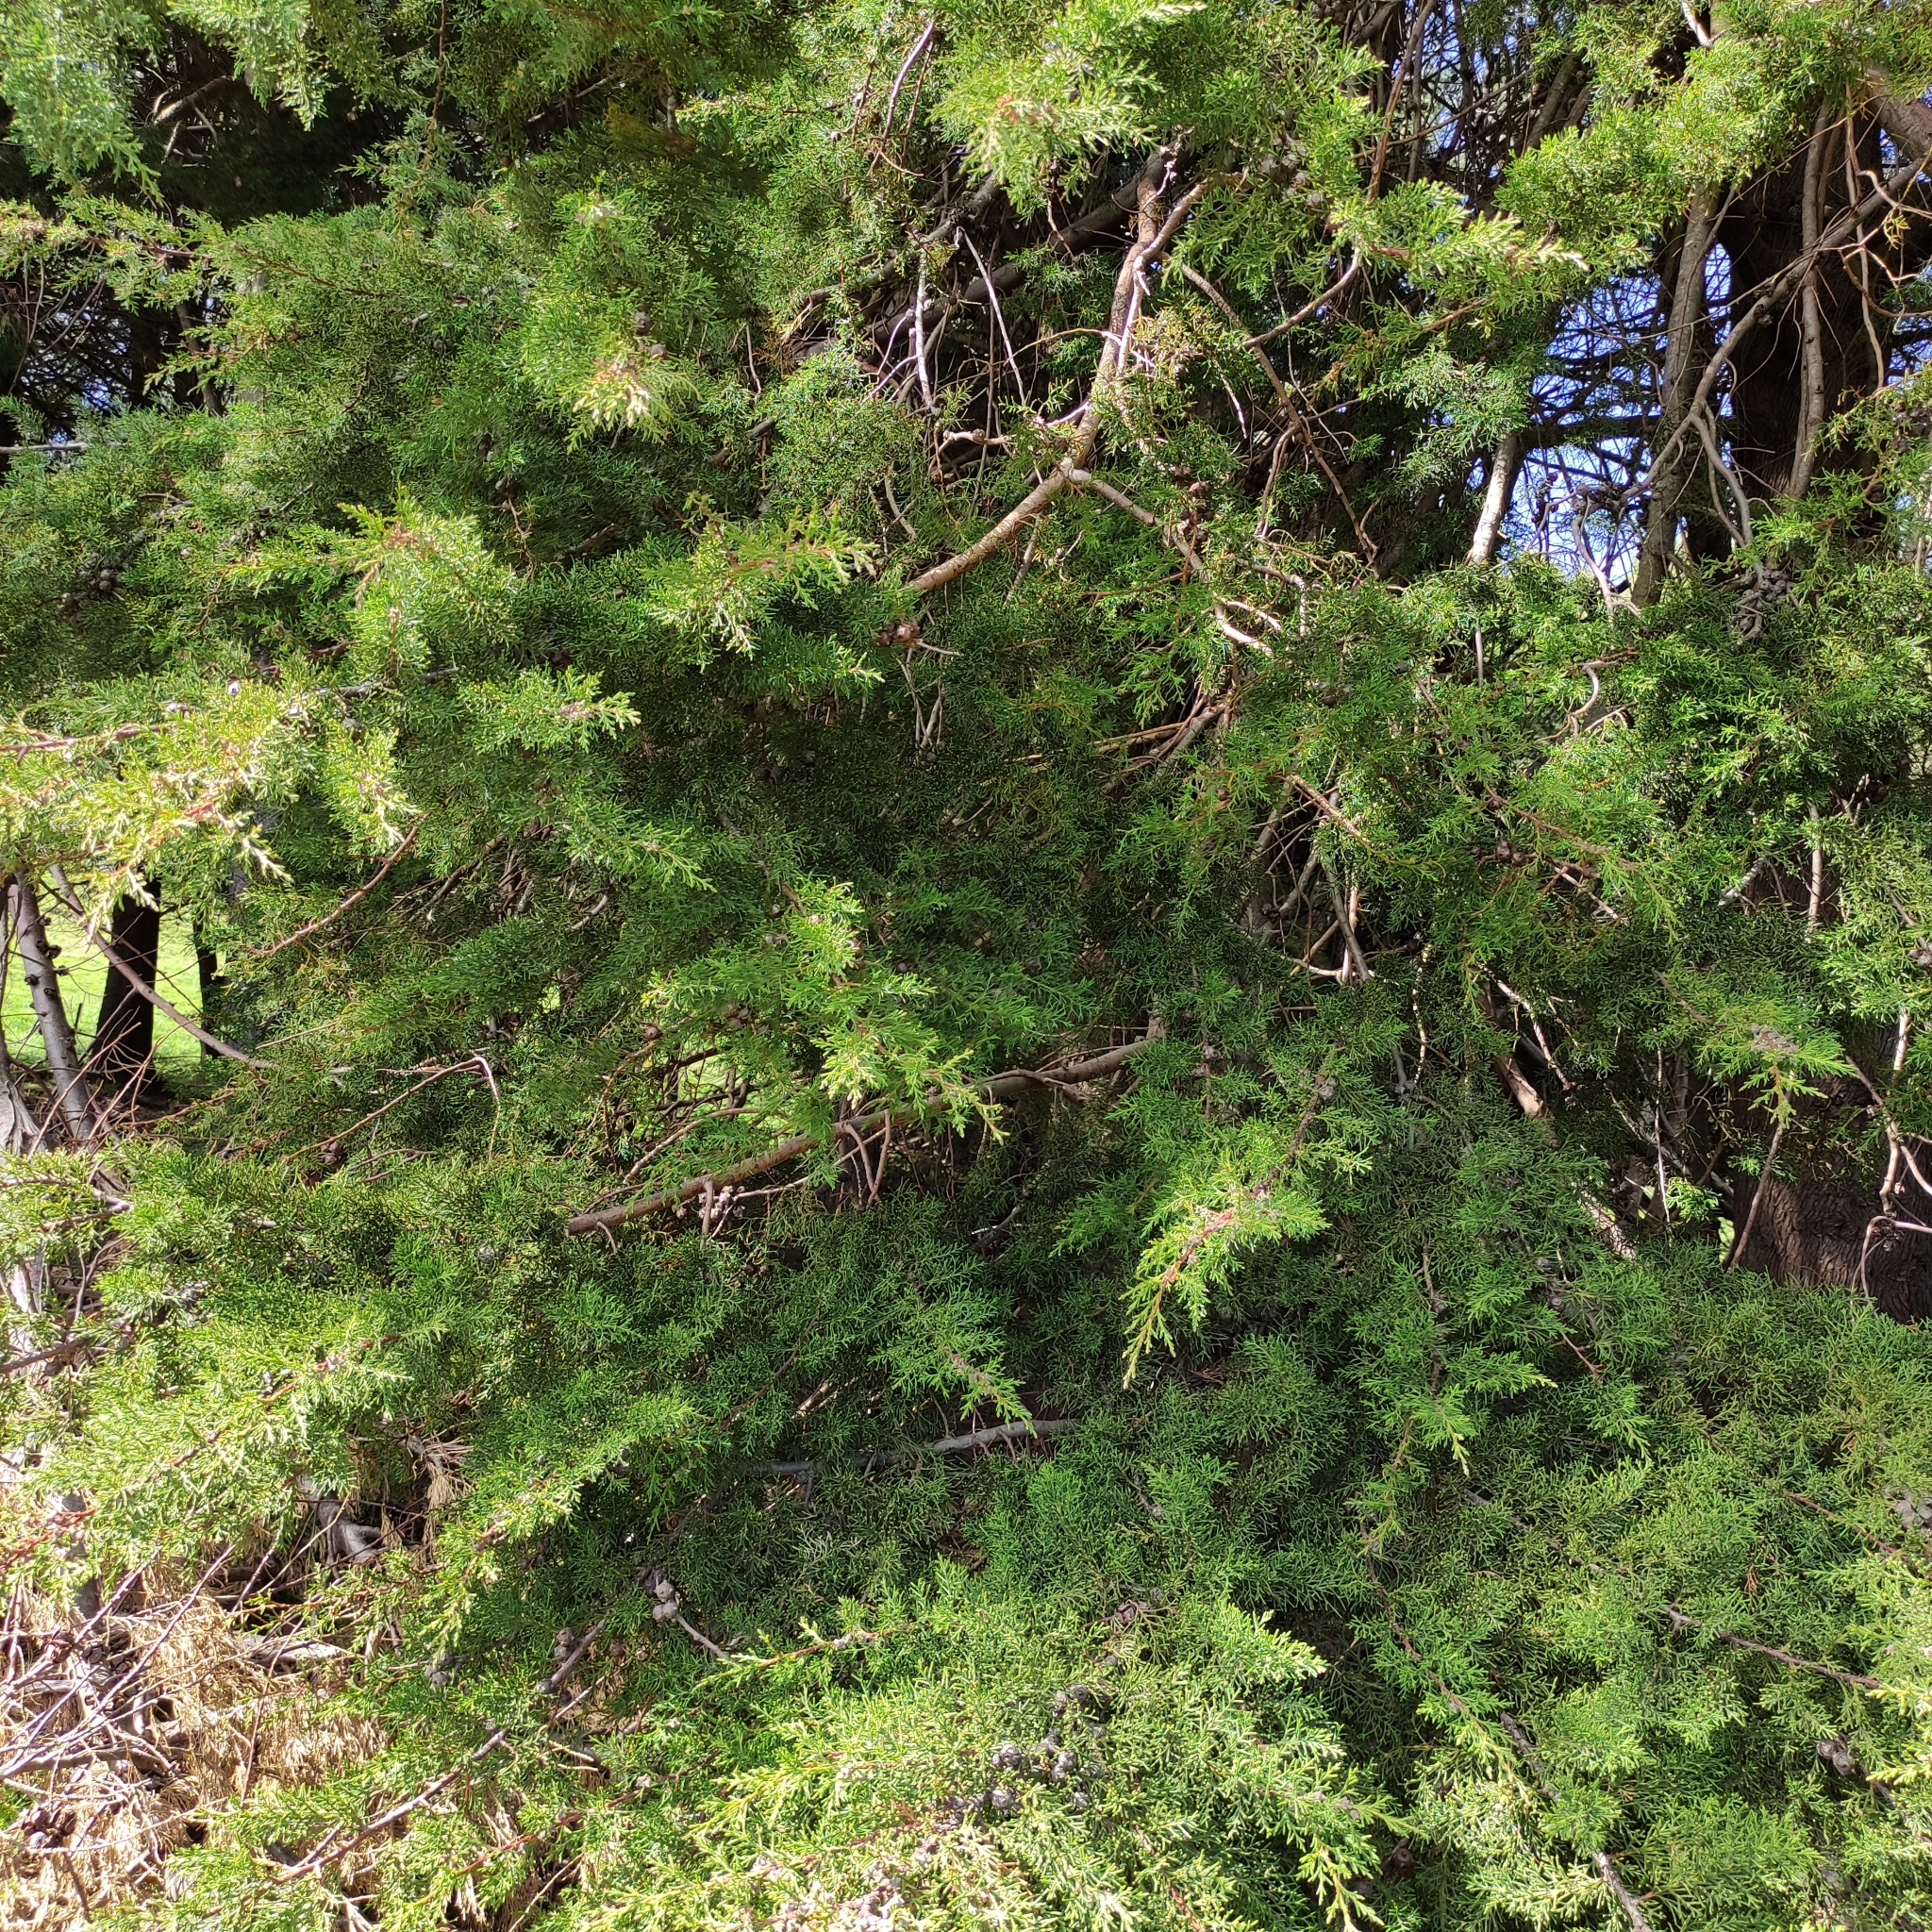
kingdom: Plantae
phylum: Tracheophyta
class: Pinopsida
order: Pinales
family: Cupressaceae
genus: Cupressus
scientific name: Cupressus macrocarpa
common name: Monterey cypress
